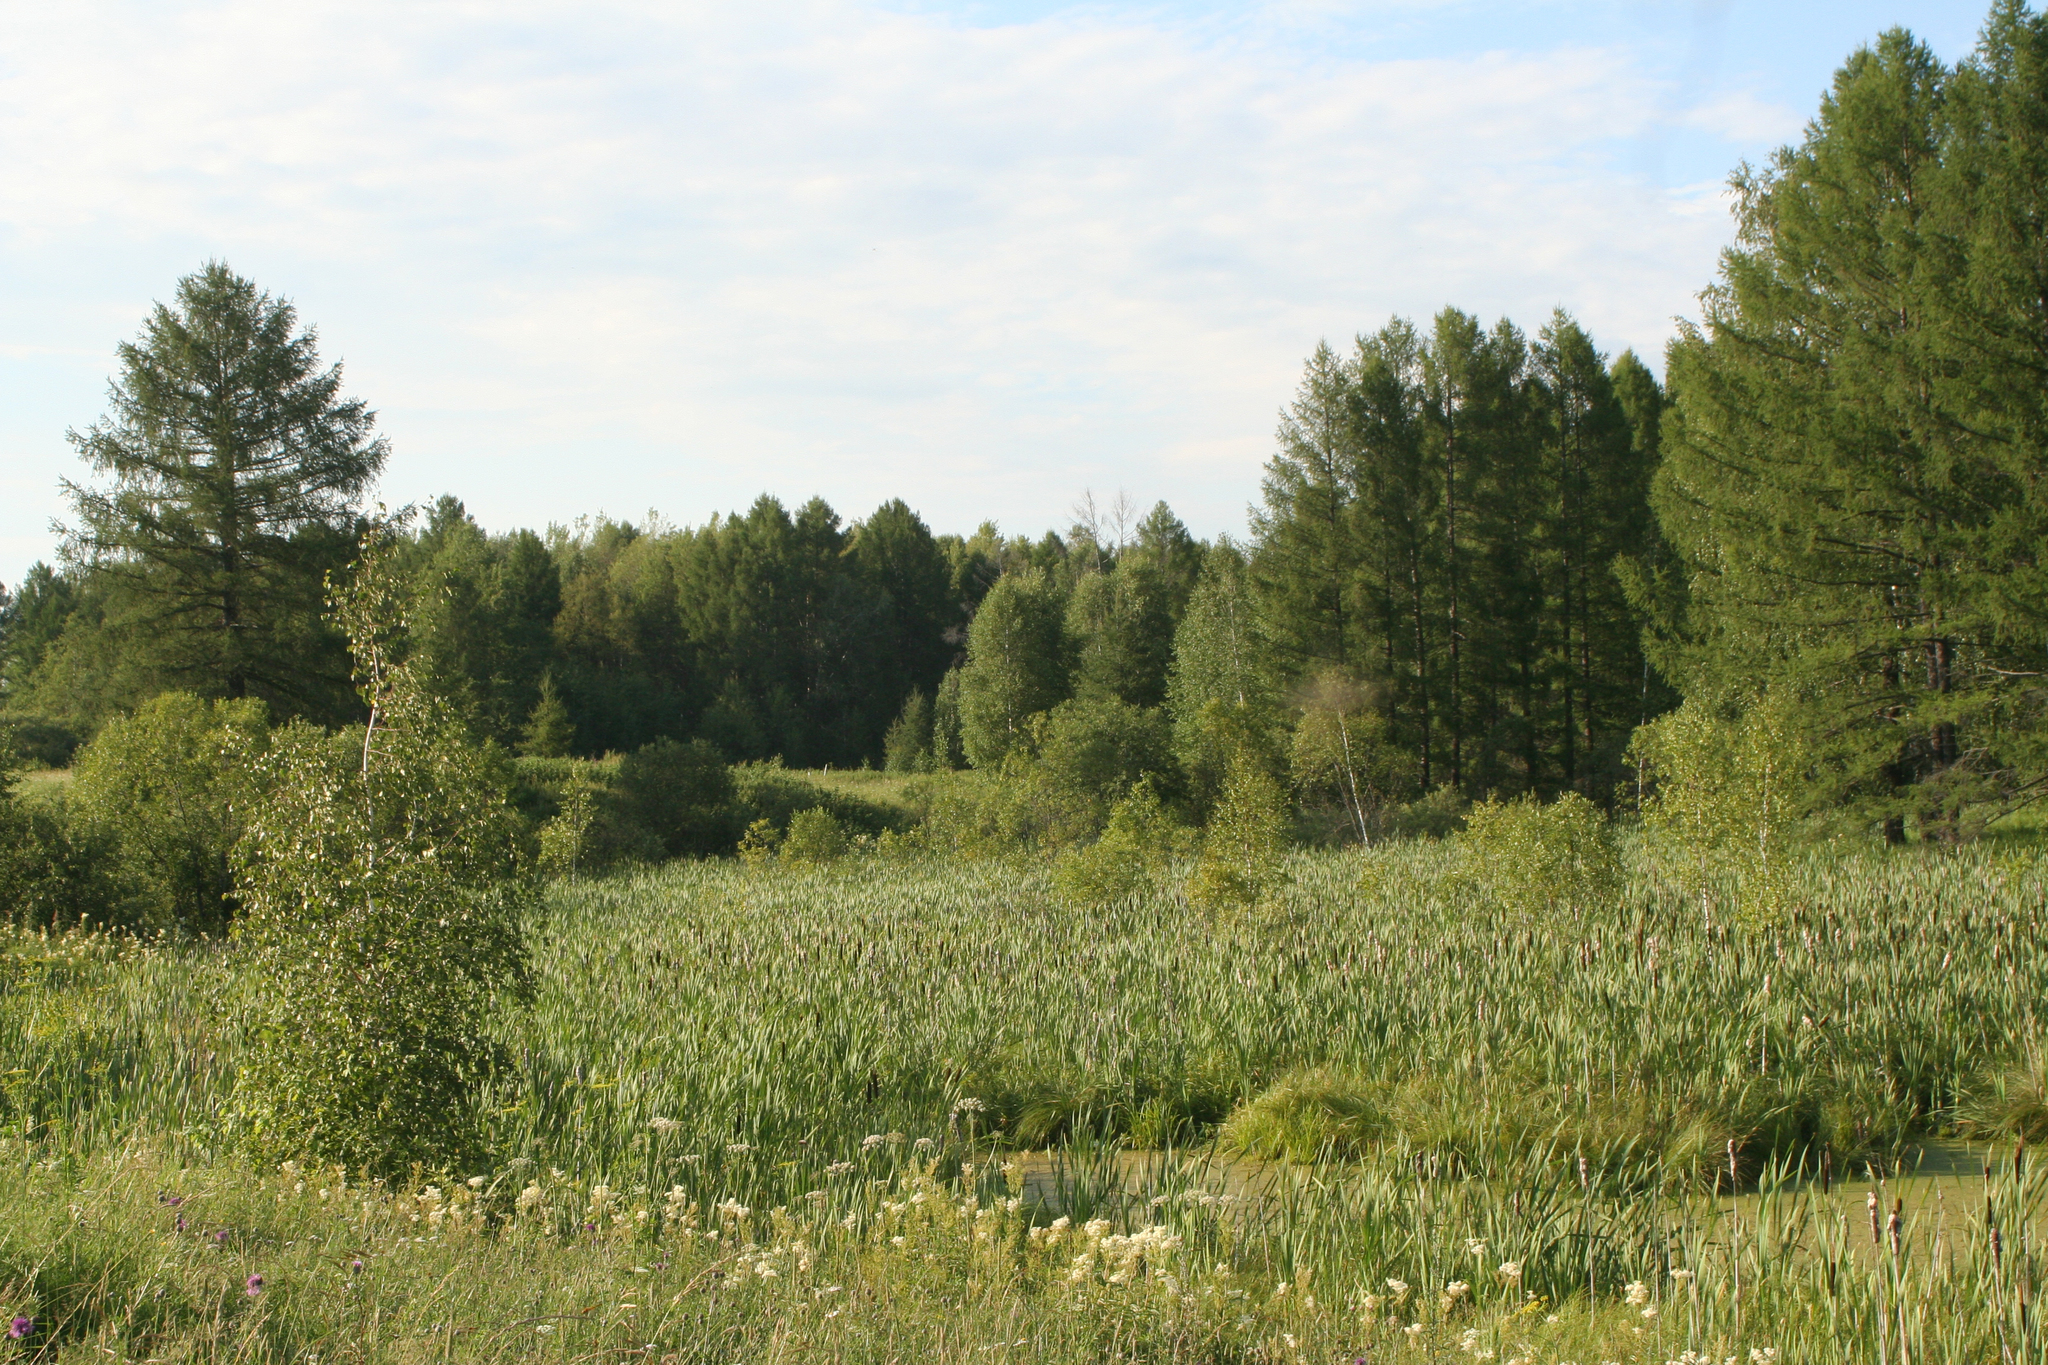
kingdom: Plantae
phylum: Tracheophyta
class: Liliopsida
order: Poales
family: Typhaceae
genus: Typha
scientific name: Typha latifolia
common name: Broadleaf cattail
